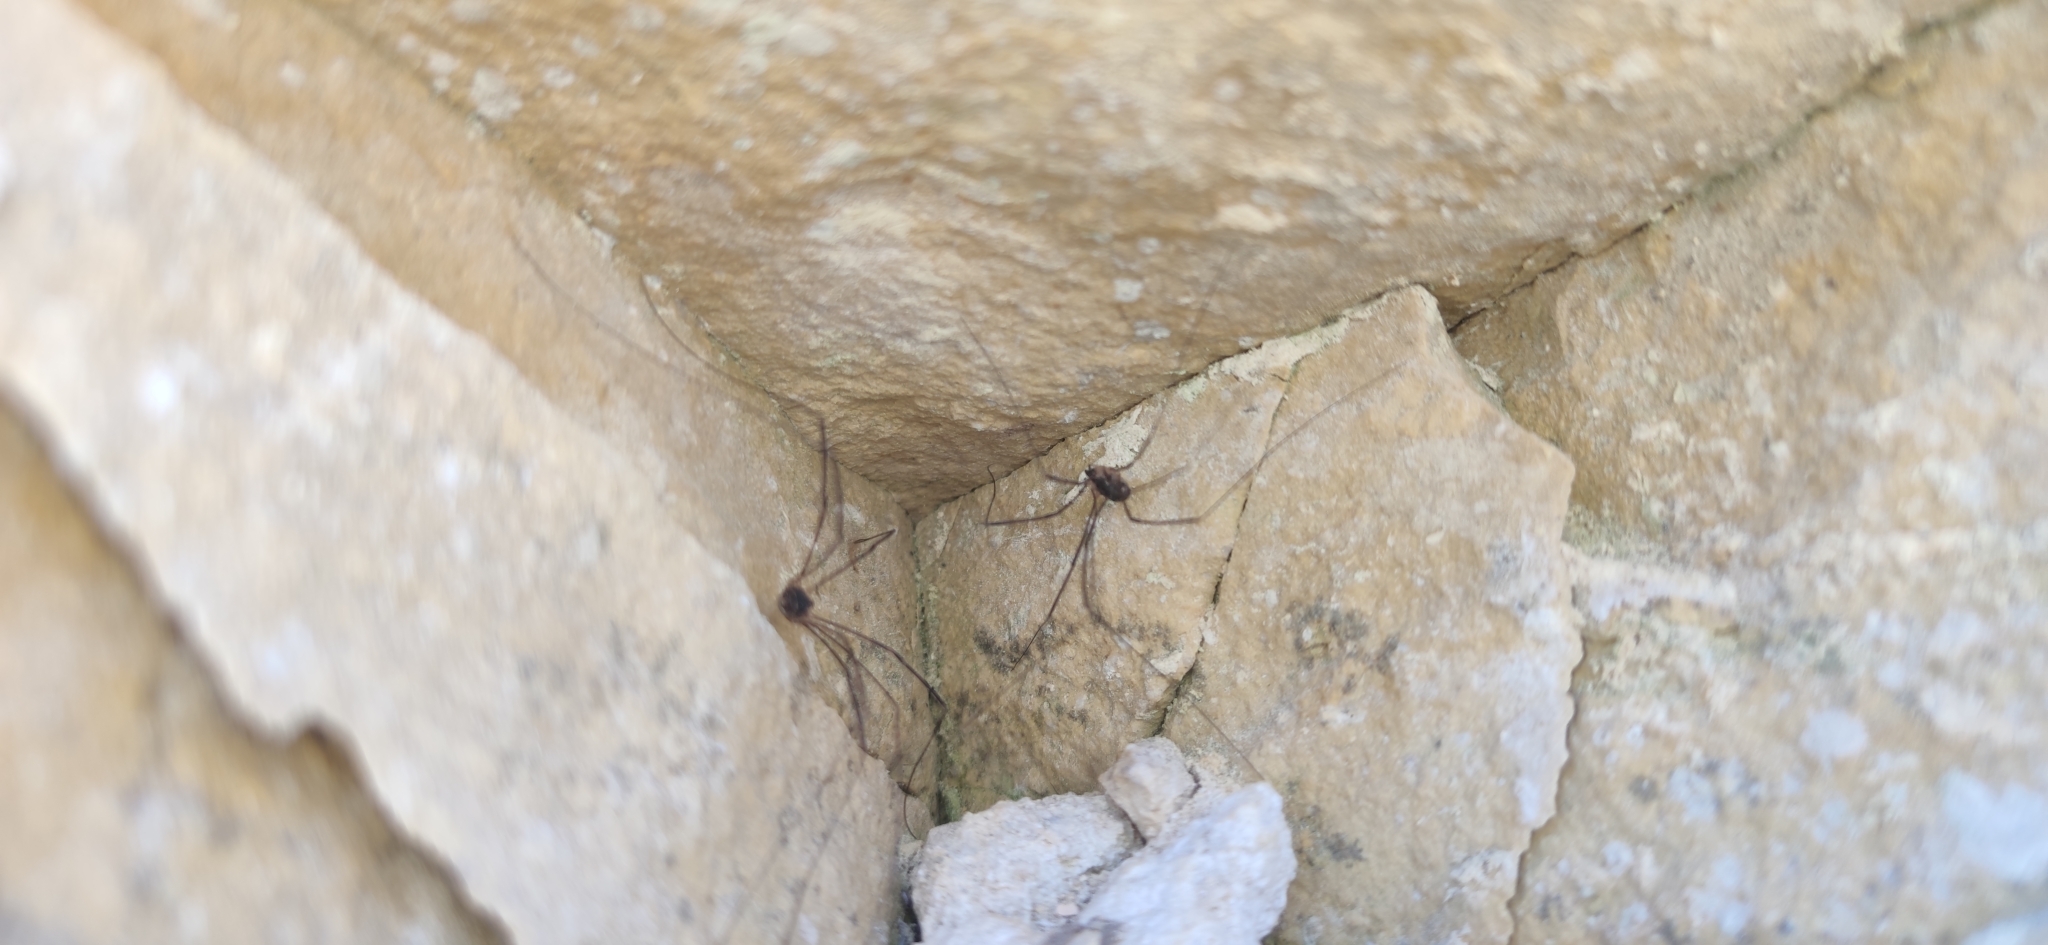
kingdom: Animalia
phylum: Arthropoda
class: Arachnida
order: Opiliones
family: Sclerosomatidae
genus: Leiobunum
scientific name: Leiobunum gracile
